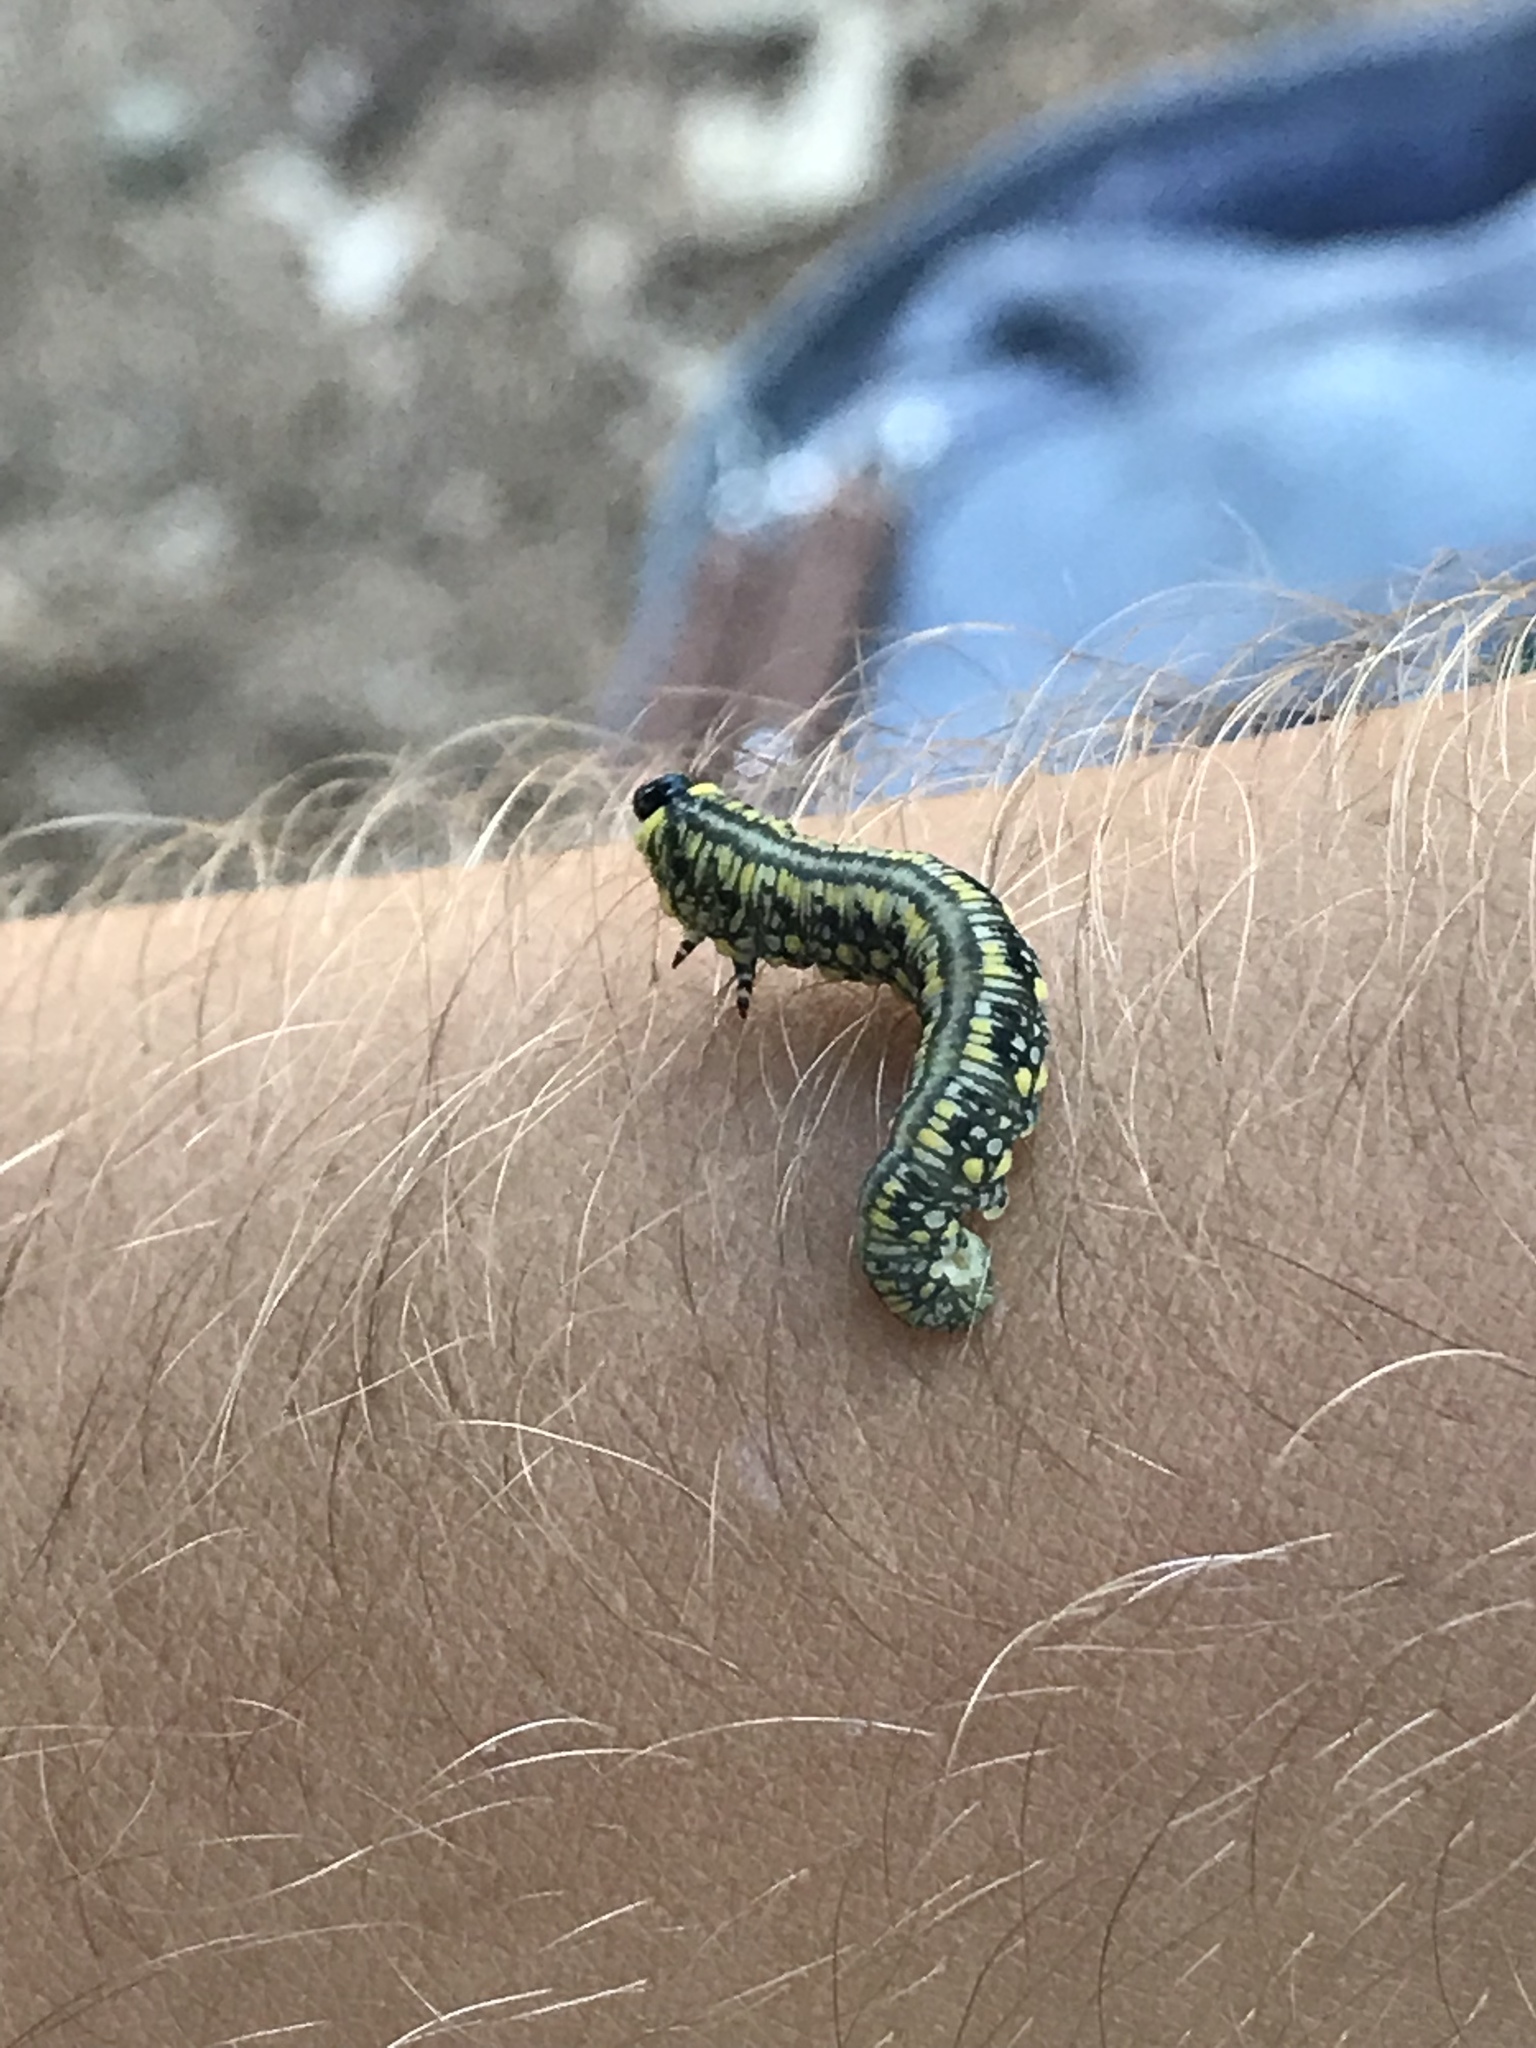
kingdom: Animalia
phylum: Arthropoda
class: Insecta
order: Hymenoptera
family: Diprionidae
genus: Diprion
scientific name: Diprion similis
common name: Pine sawfly
